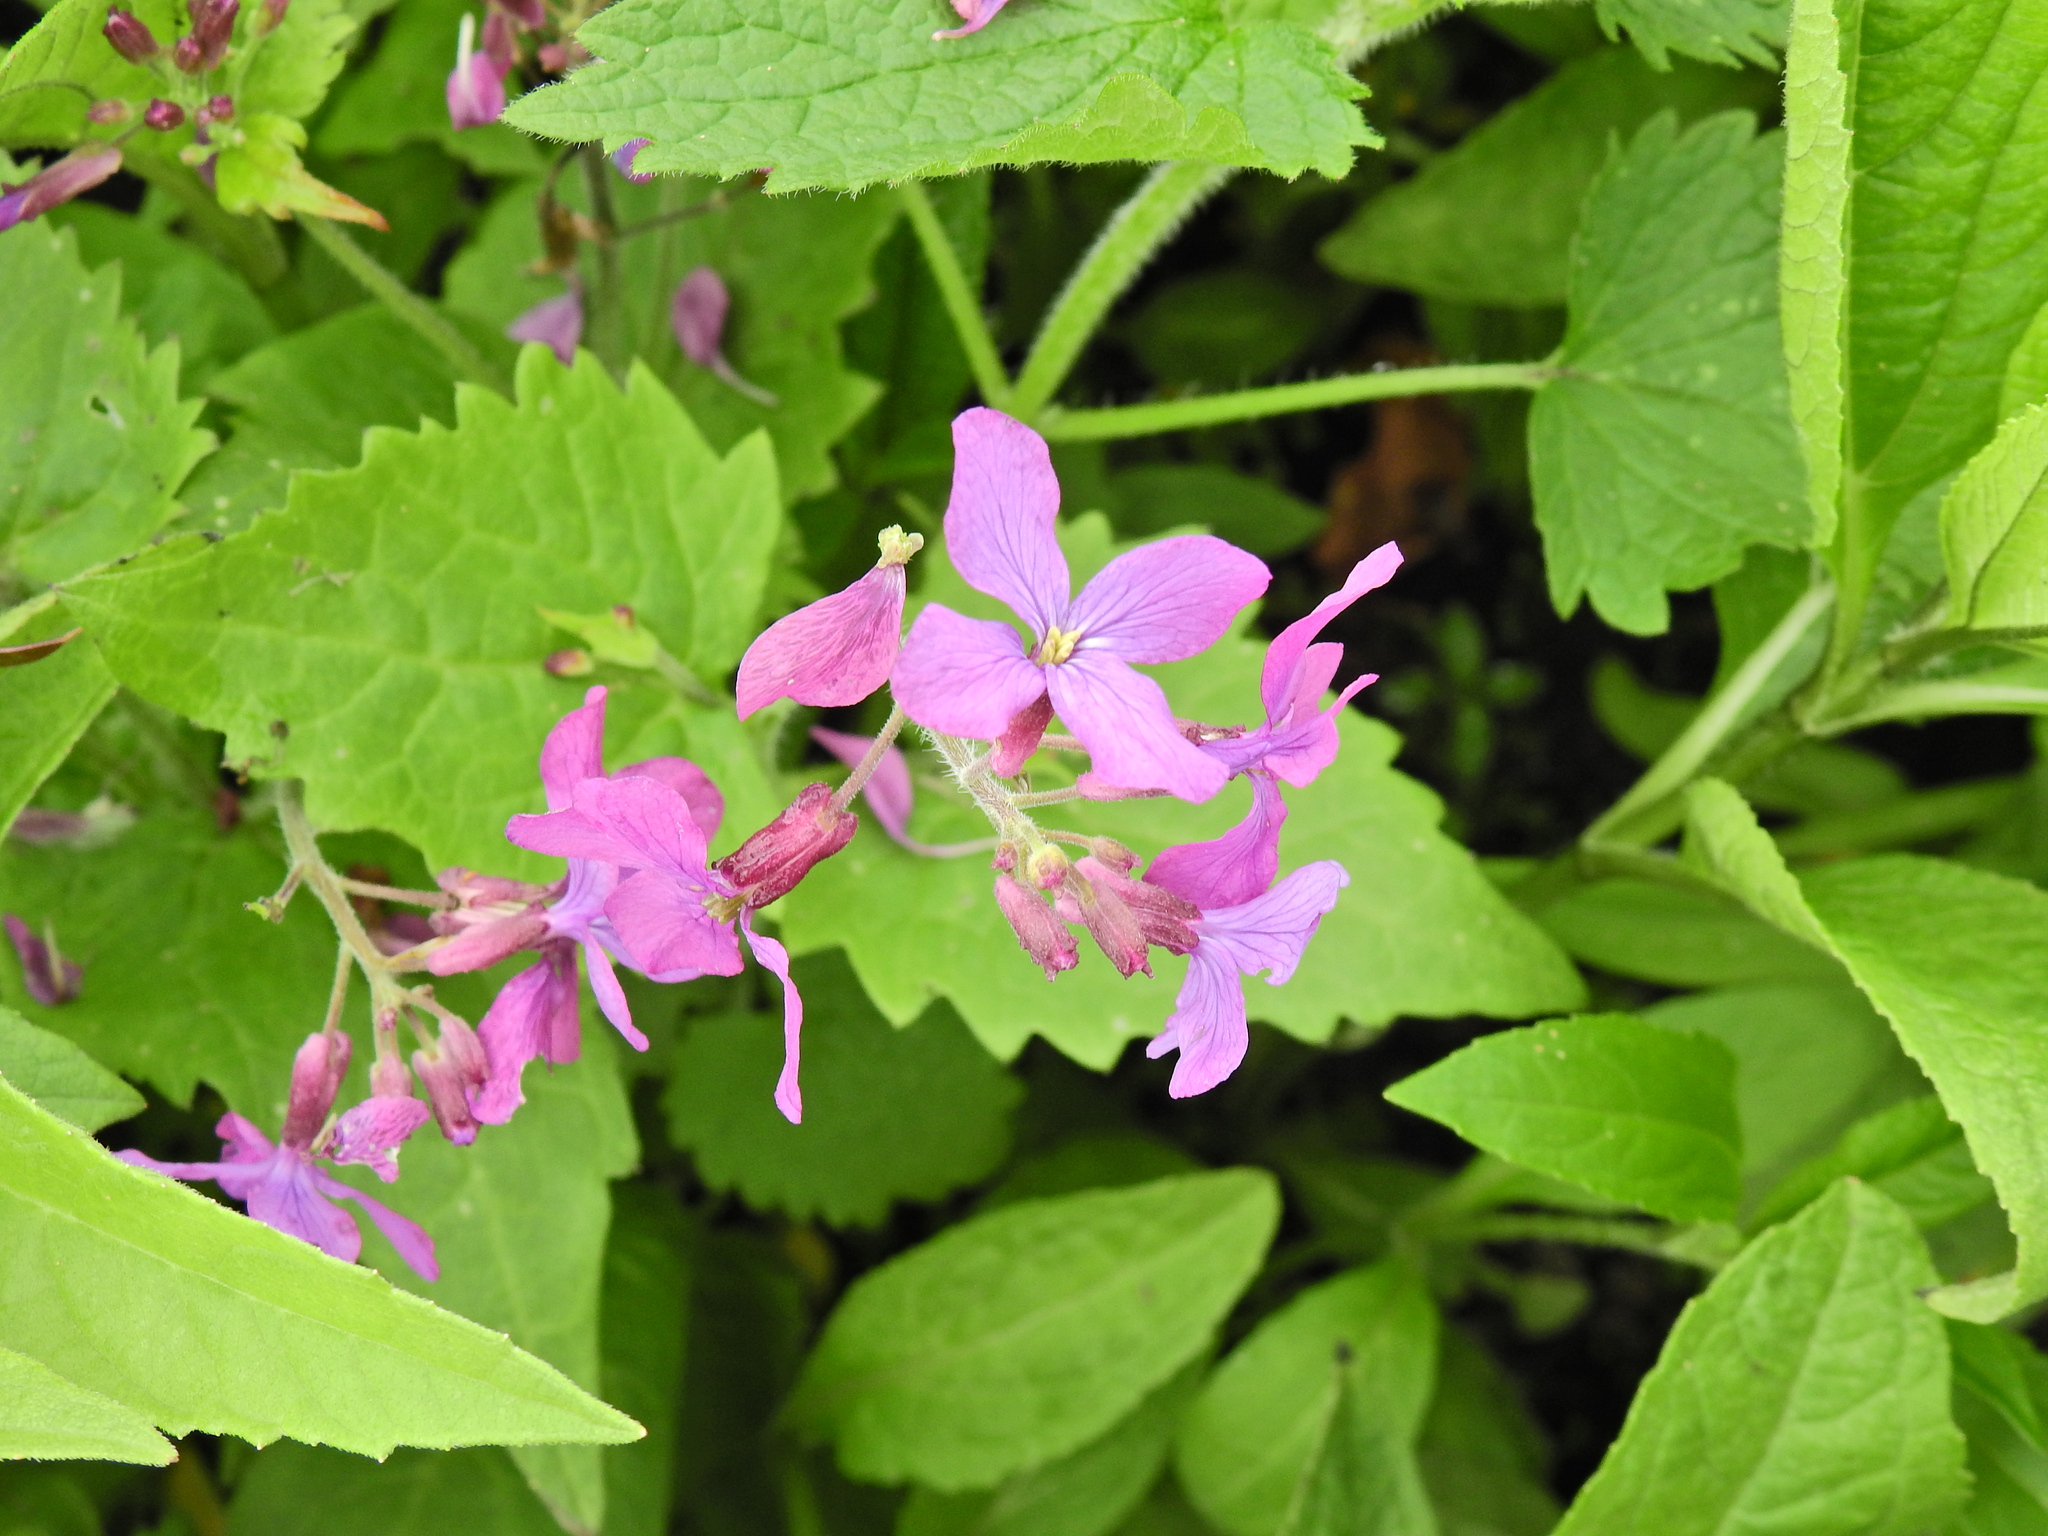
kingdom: Plantae
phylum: Tracheophyta
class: Magnoliopsida
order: Brassicales
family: Brassicaceae
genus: Lunaria
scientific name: Lunaria annua
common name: Honesty
